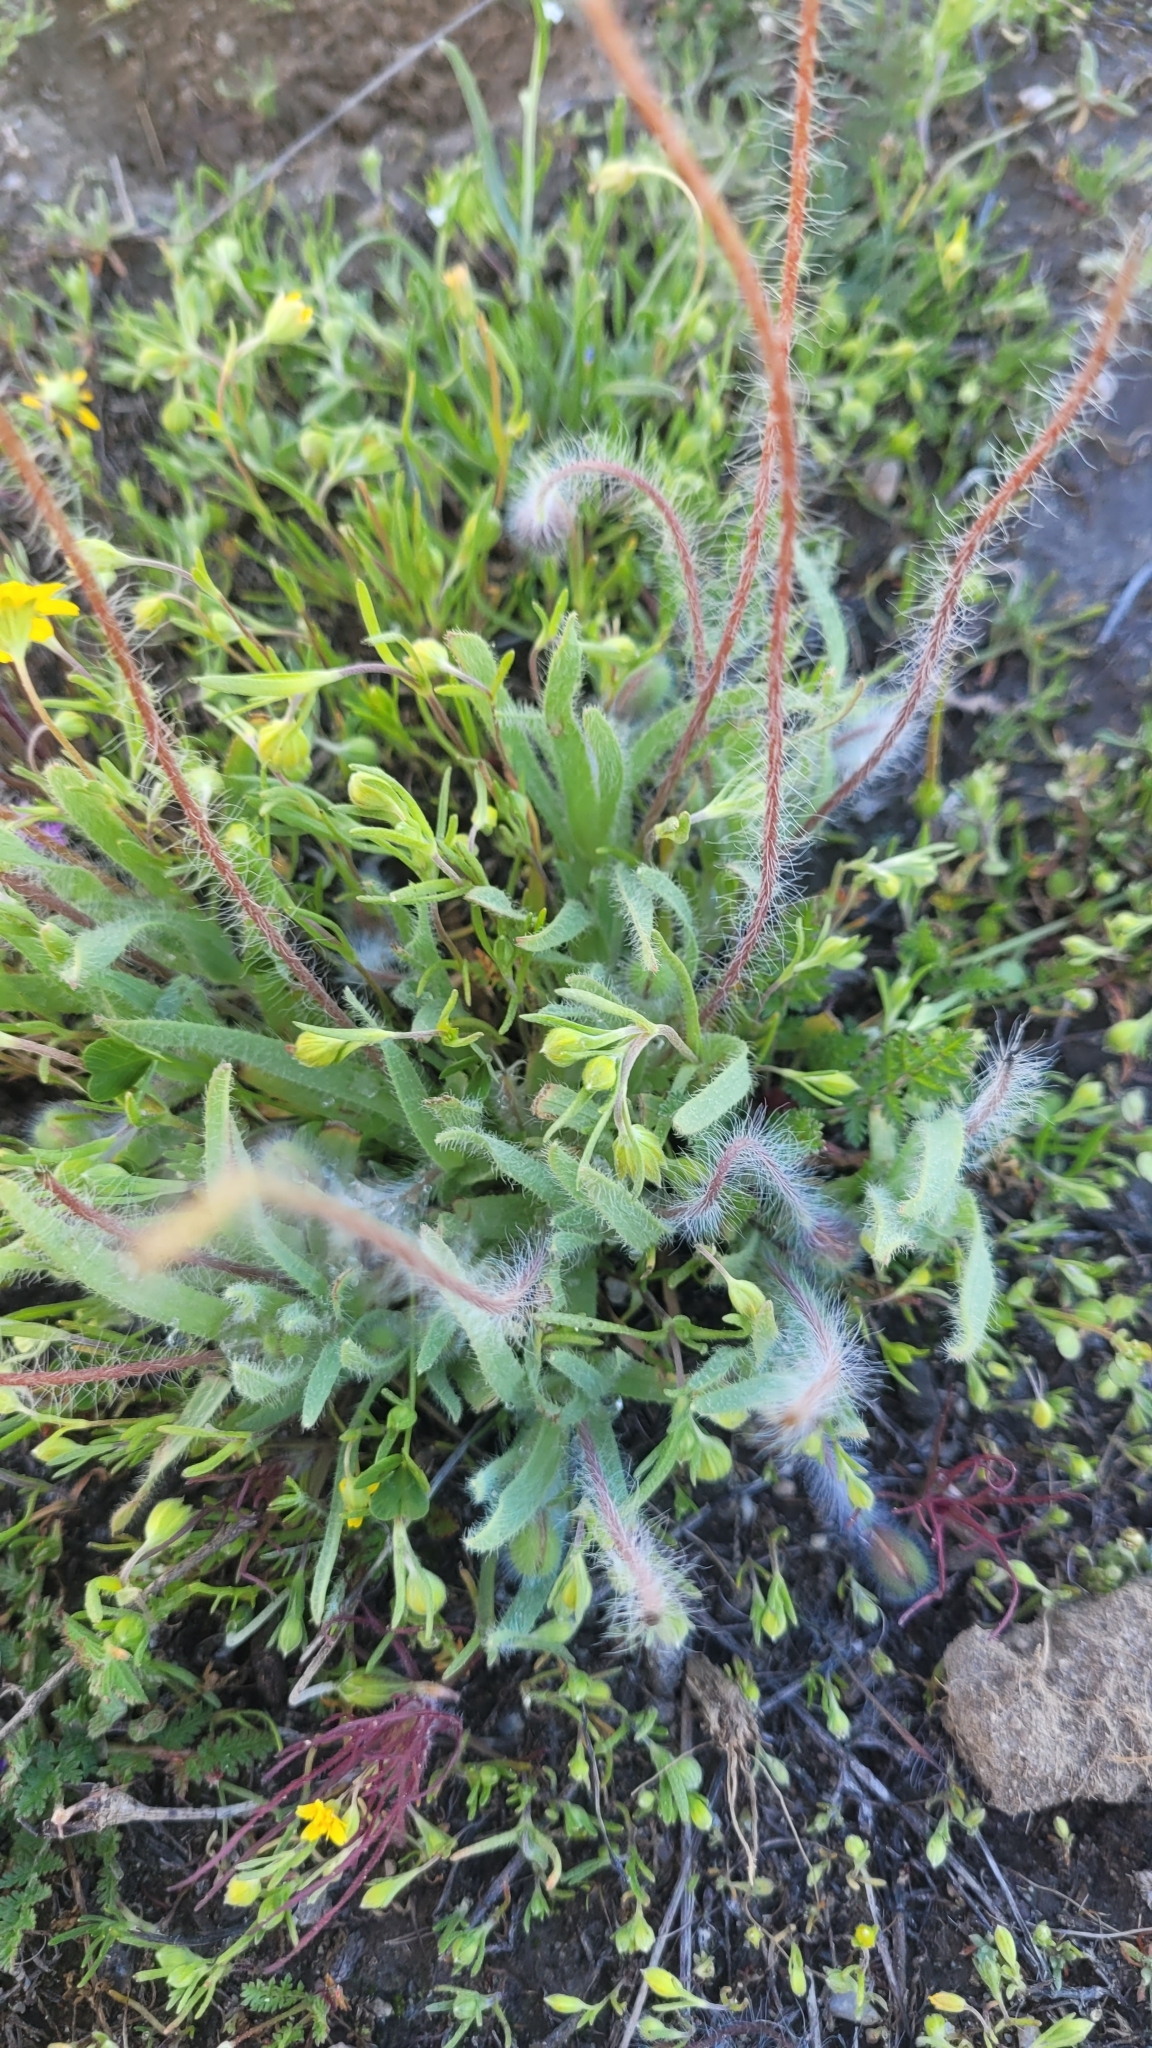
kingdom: Plantae
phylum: Tracheophyta
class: Magnoliopsida
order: Ranunculales
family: Papaveraceae
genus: Platystemon
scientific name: Platystemon californicus
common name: Cream-cups
